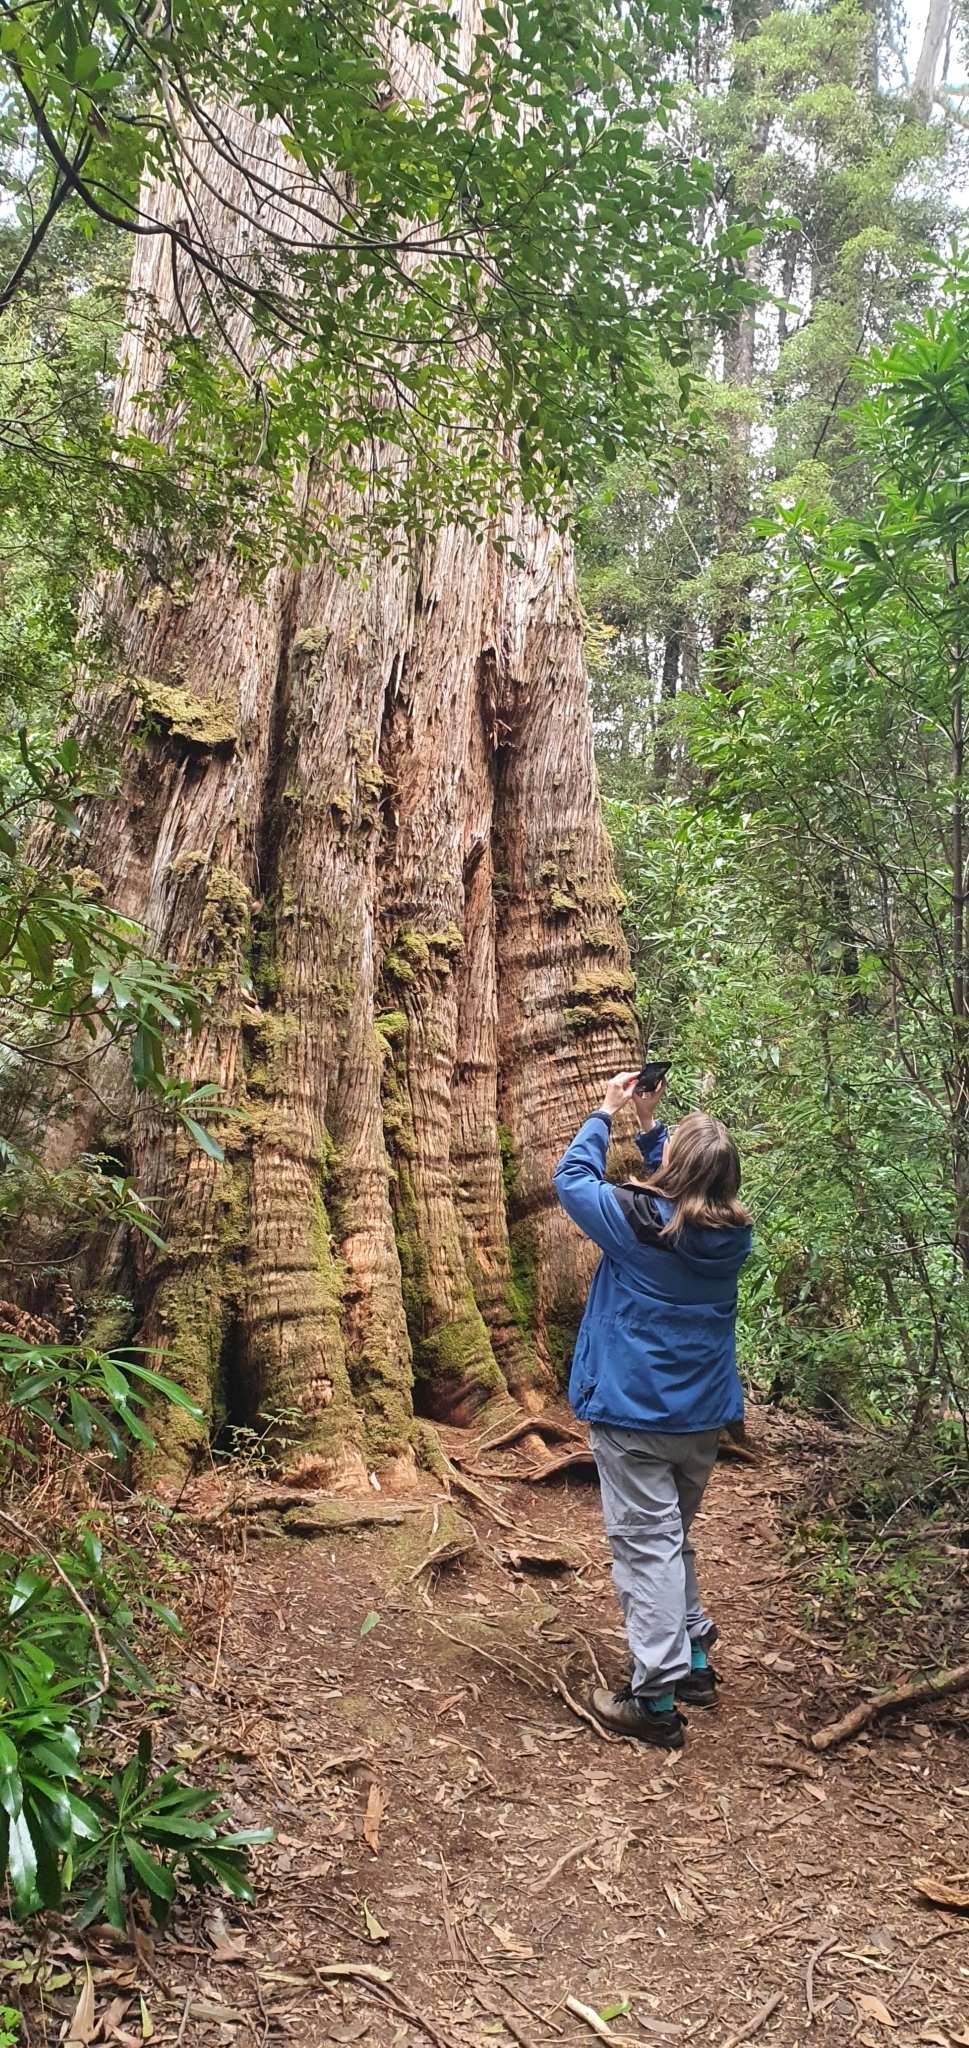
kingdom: Plantae
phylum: Tracheophyta
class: Magnoliopsida
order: Myrtales
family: Myrtaceae
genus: Eucalyptus
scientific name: Eucalyptus obliqua
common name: Messmate stringybark
